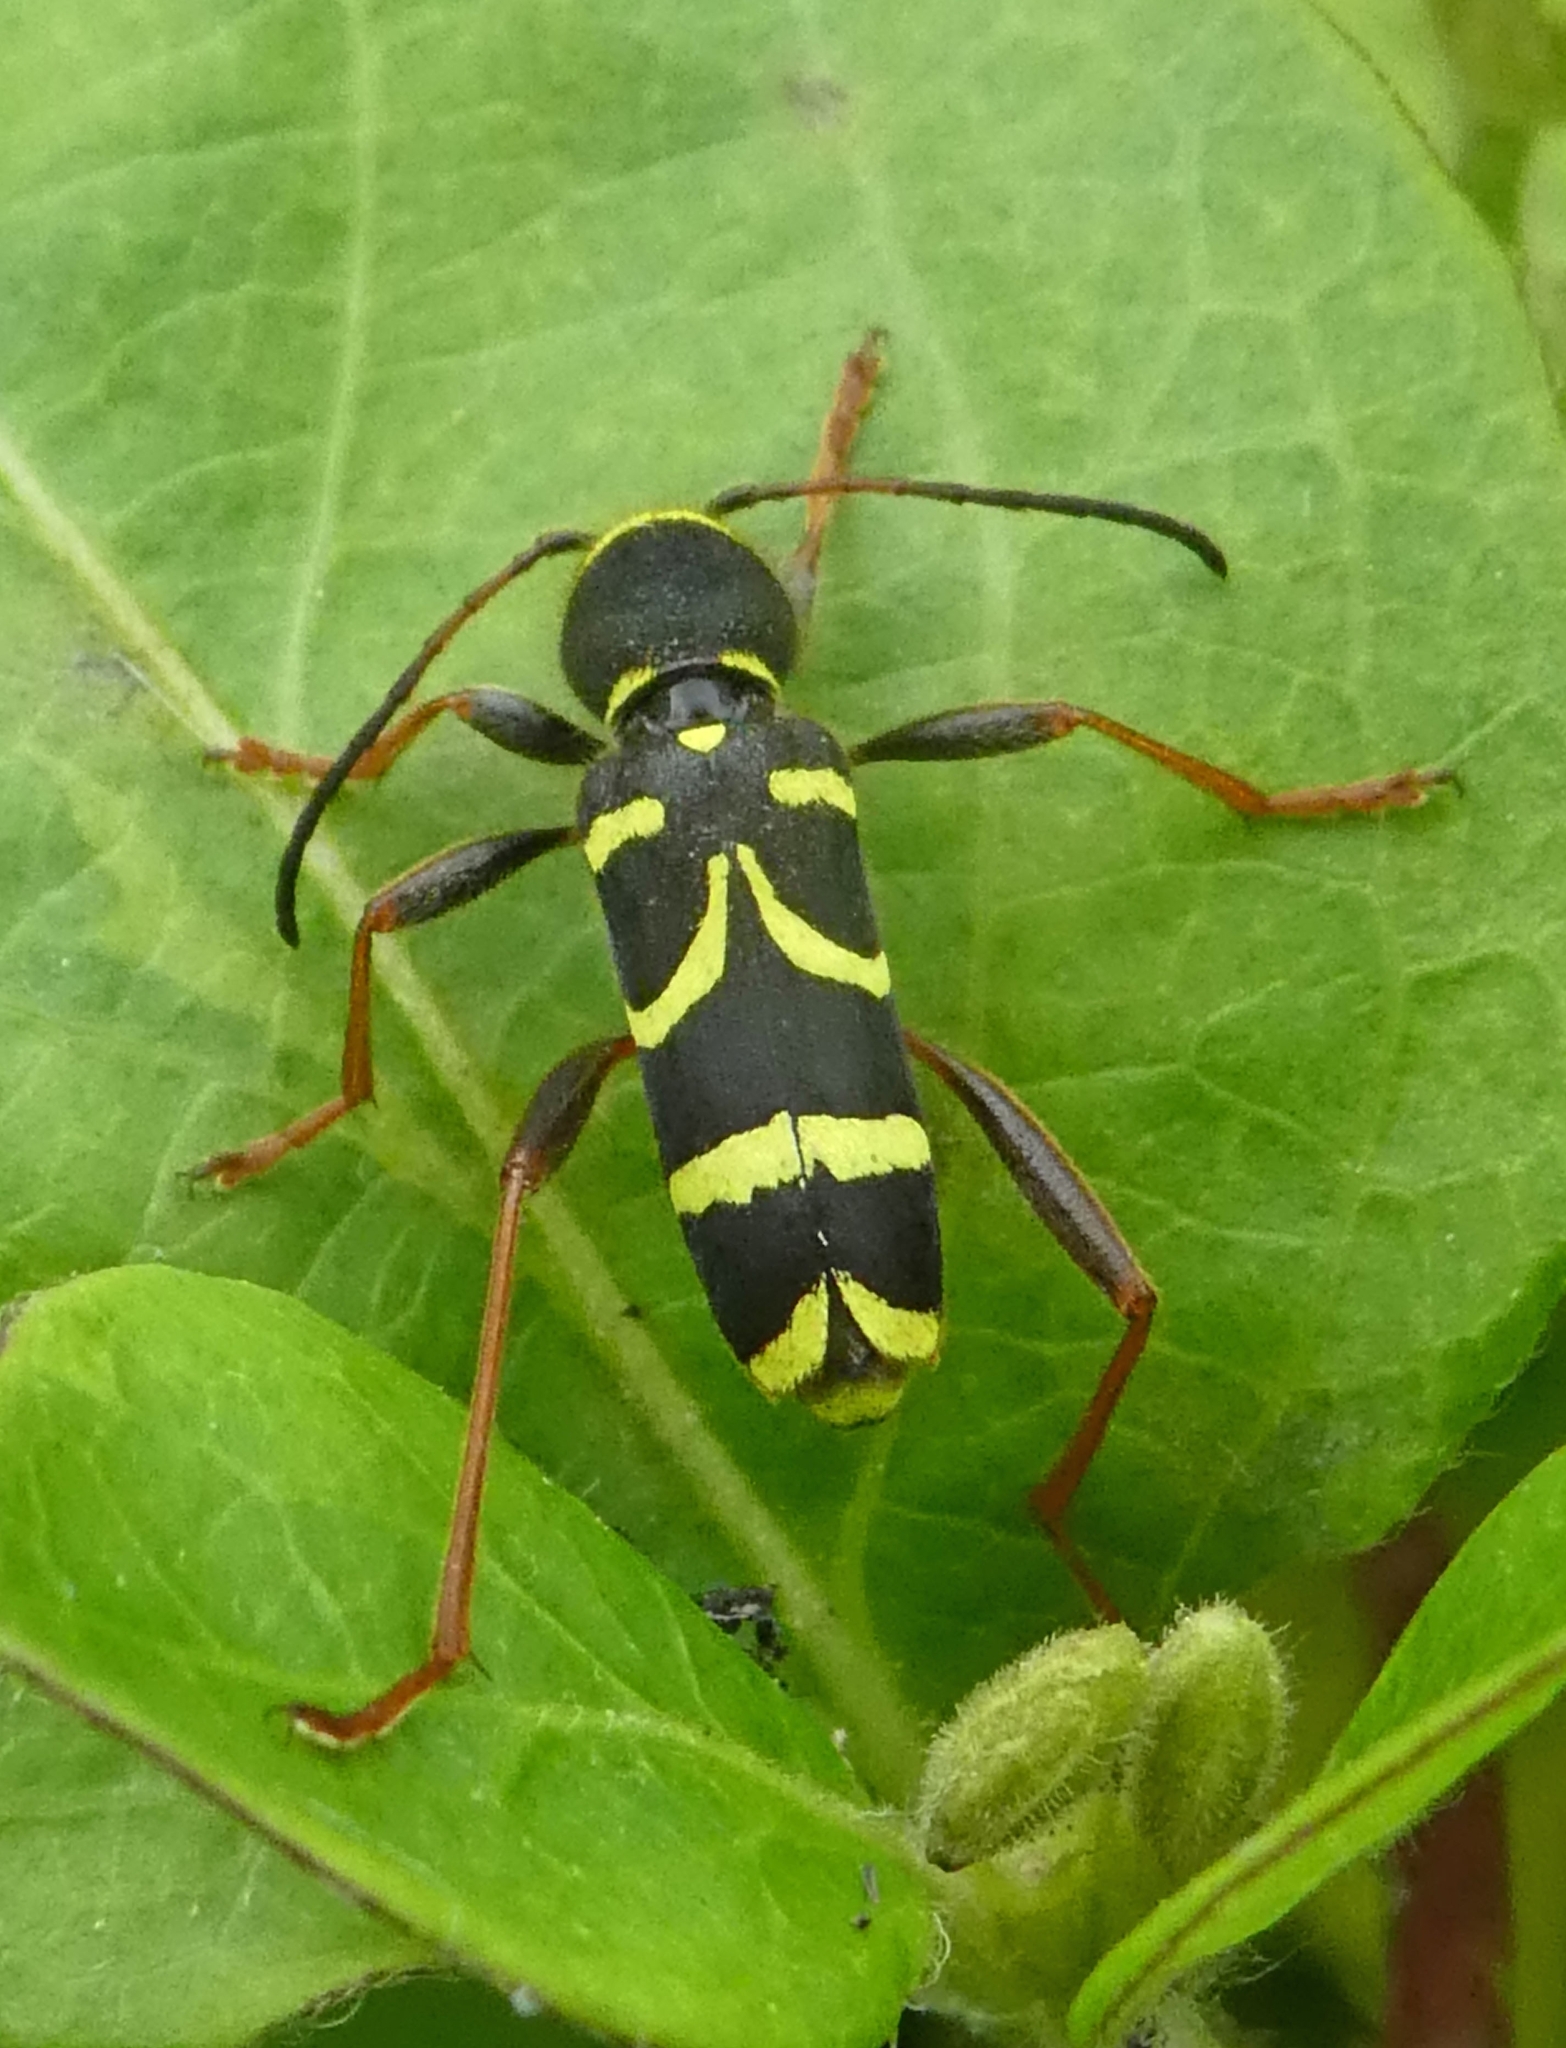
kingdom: Animalia
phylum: Arthropoda
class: Insecta
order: Coleoptera
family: Cerambycidae
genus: Clytus
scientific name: Clytus arietis
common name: Wasp beetle
